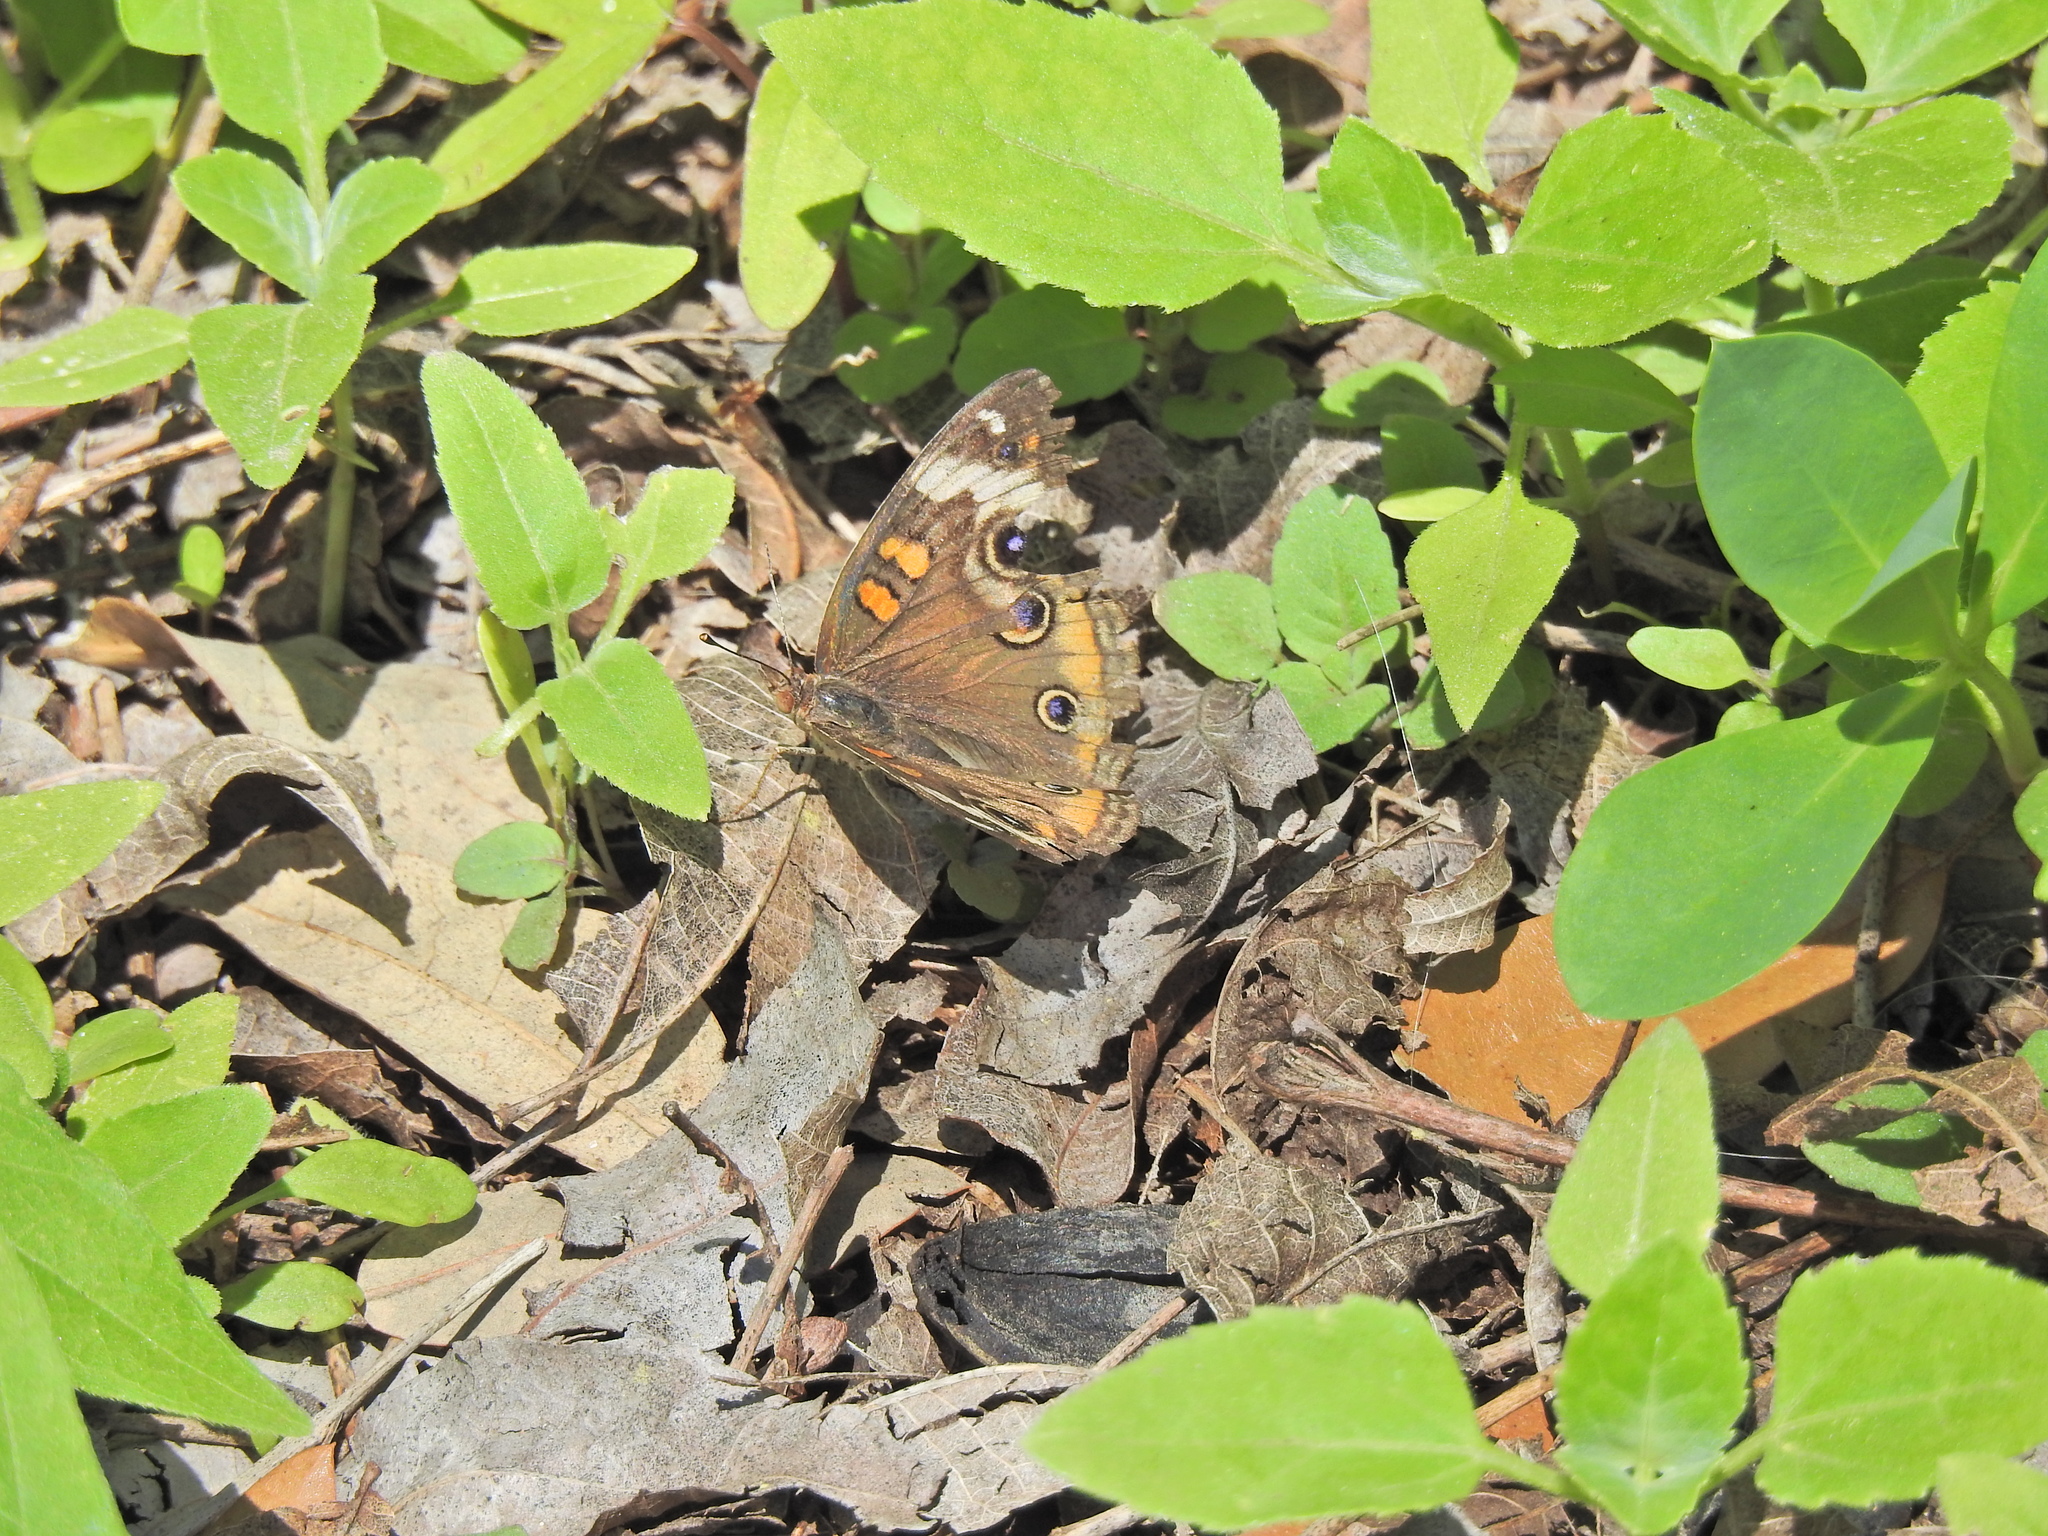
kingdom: Animalia
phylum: Arthropoda
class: Insecta
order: Lepidoptera
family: Nymphalidae
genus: Junonia
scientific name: Junonia coenia
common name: Common buckeye
